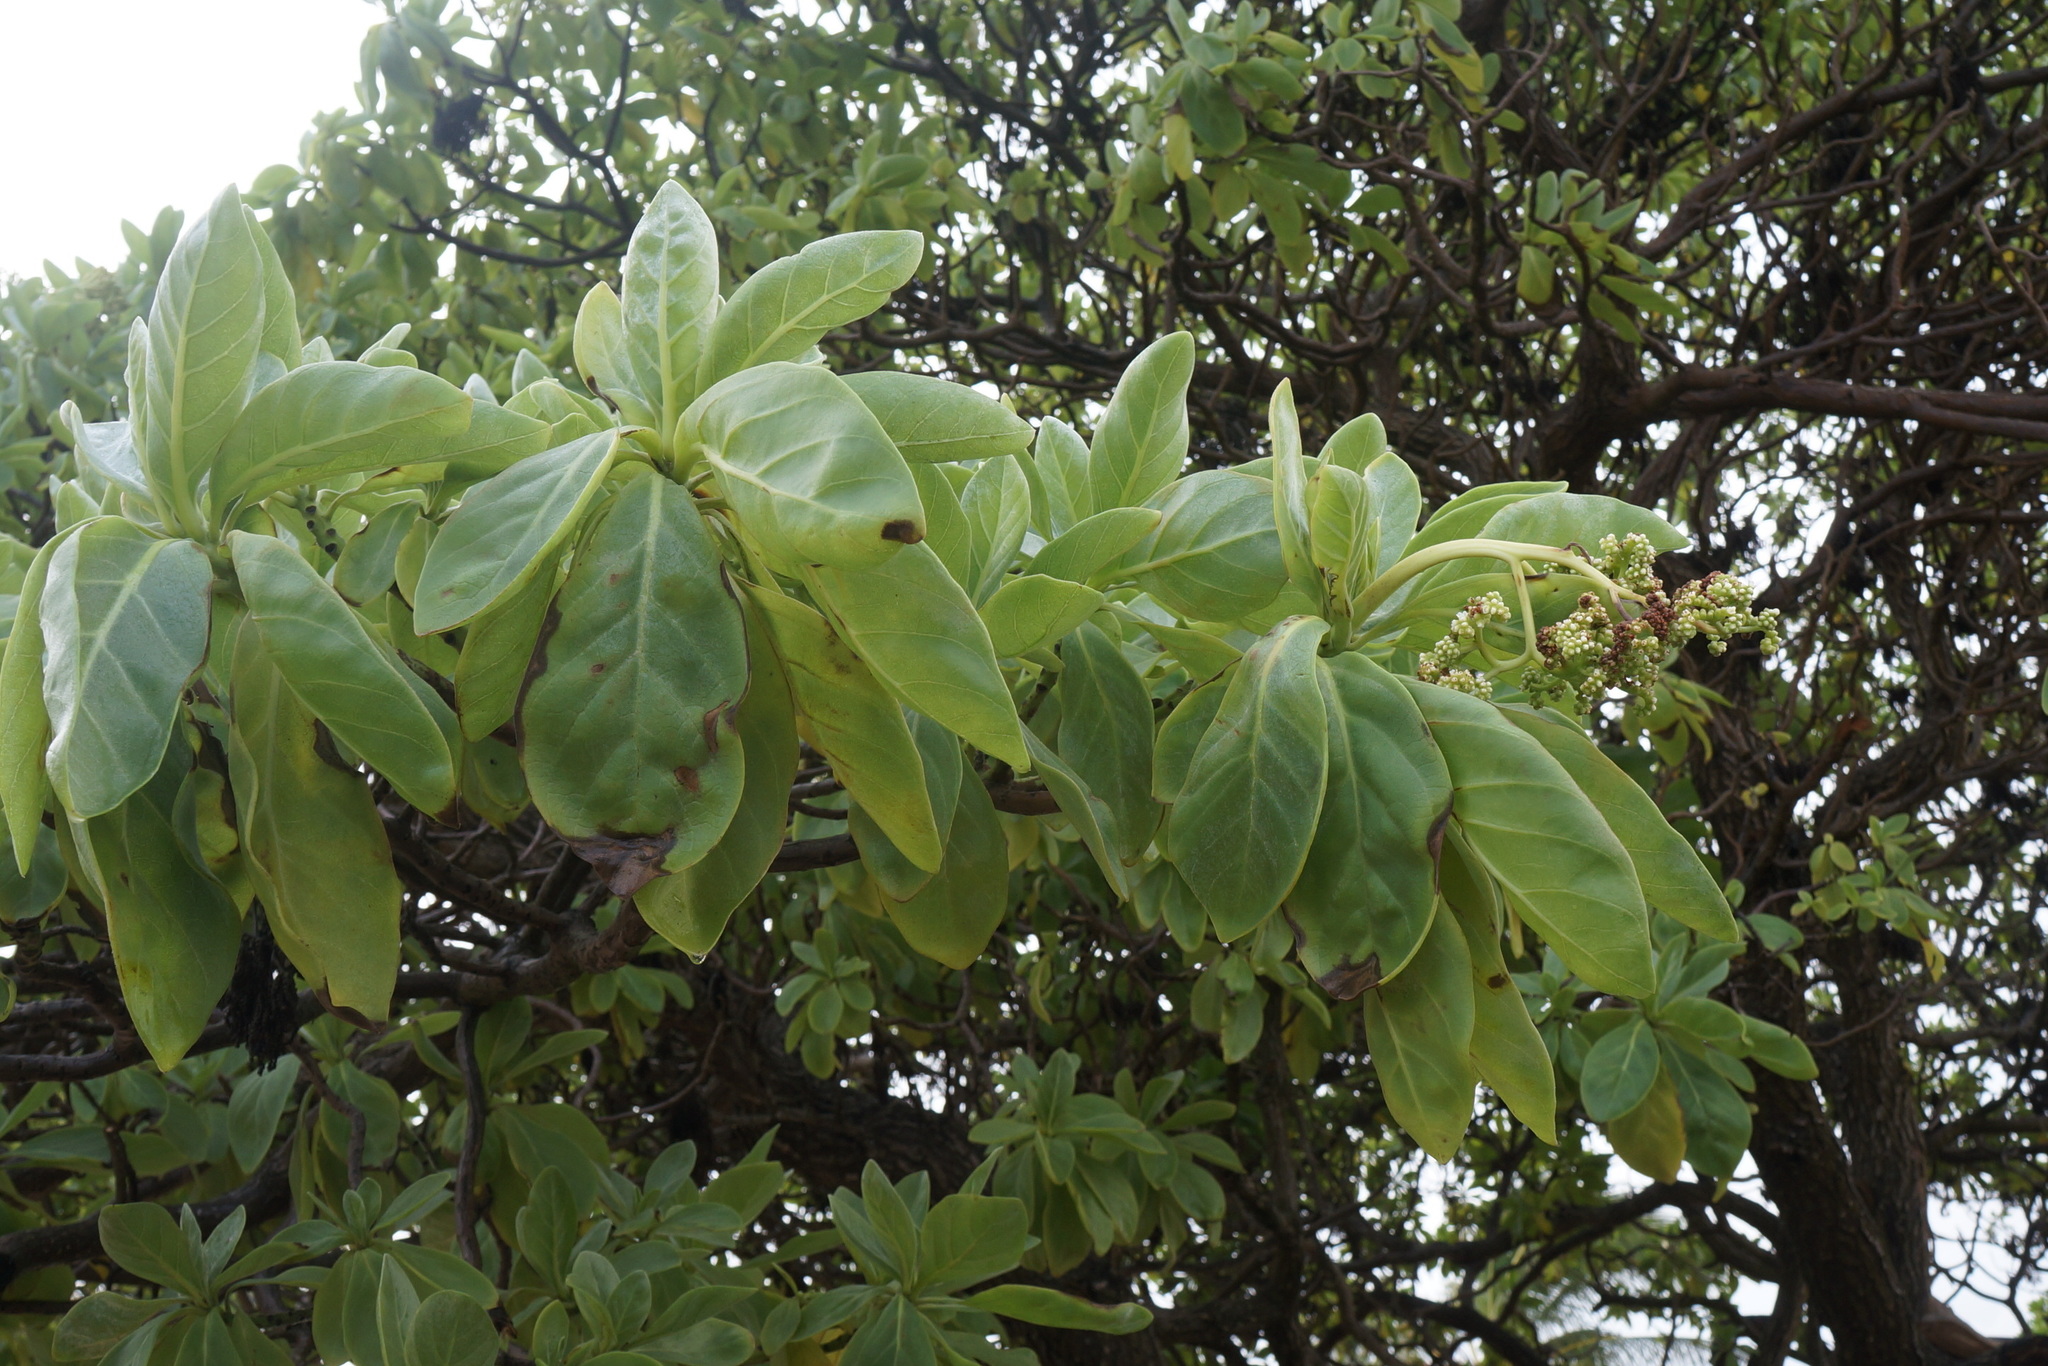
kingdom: Plantae
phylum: Tracheophyta
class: Magnoliopsida
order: Boraginales
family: Heliotropiaceae
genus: Heliotropium
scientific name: Heliotropium velutinum
